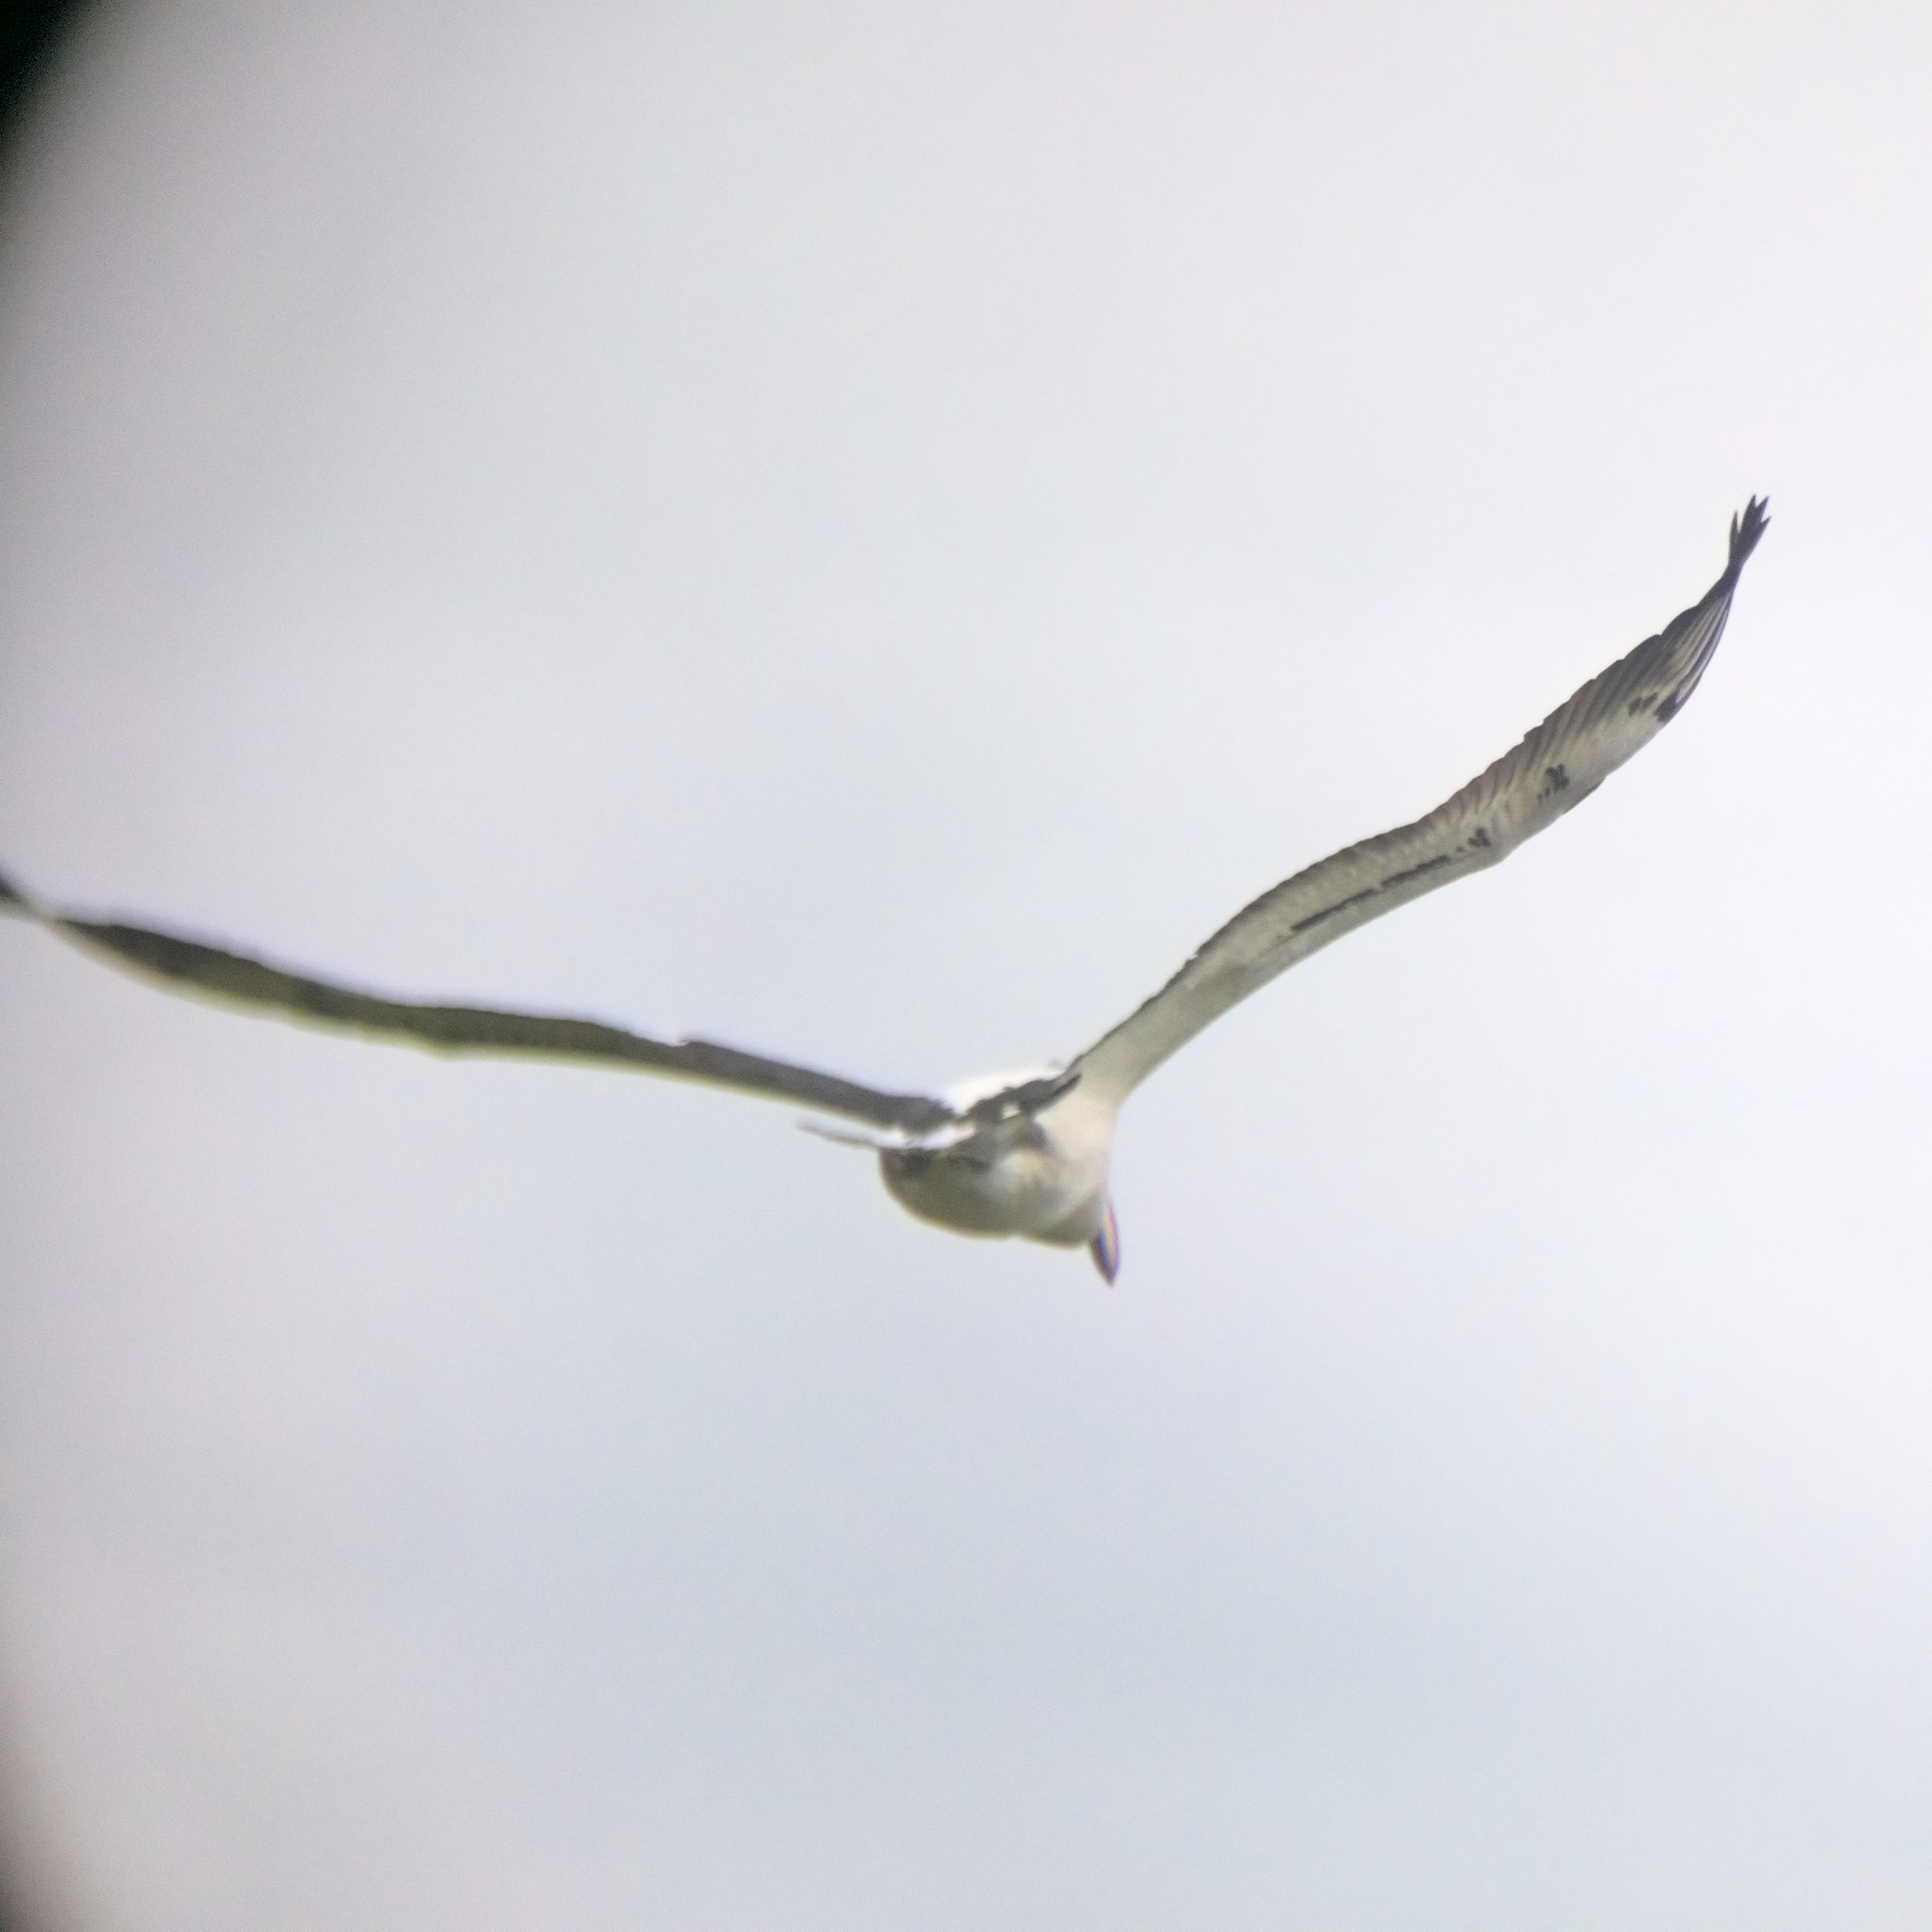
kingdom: Animalia
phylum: Chordata
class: Aves
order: Pelecaniformes
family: Pelecanidae
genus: Pelecanus
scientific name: Pelecanus conspicillatus
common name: Australian pelican
